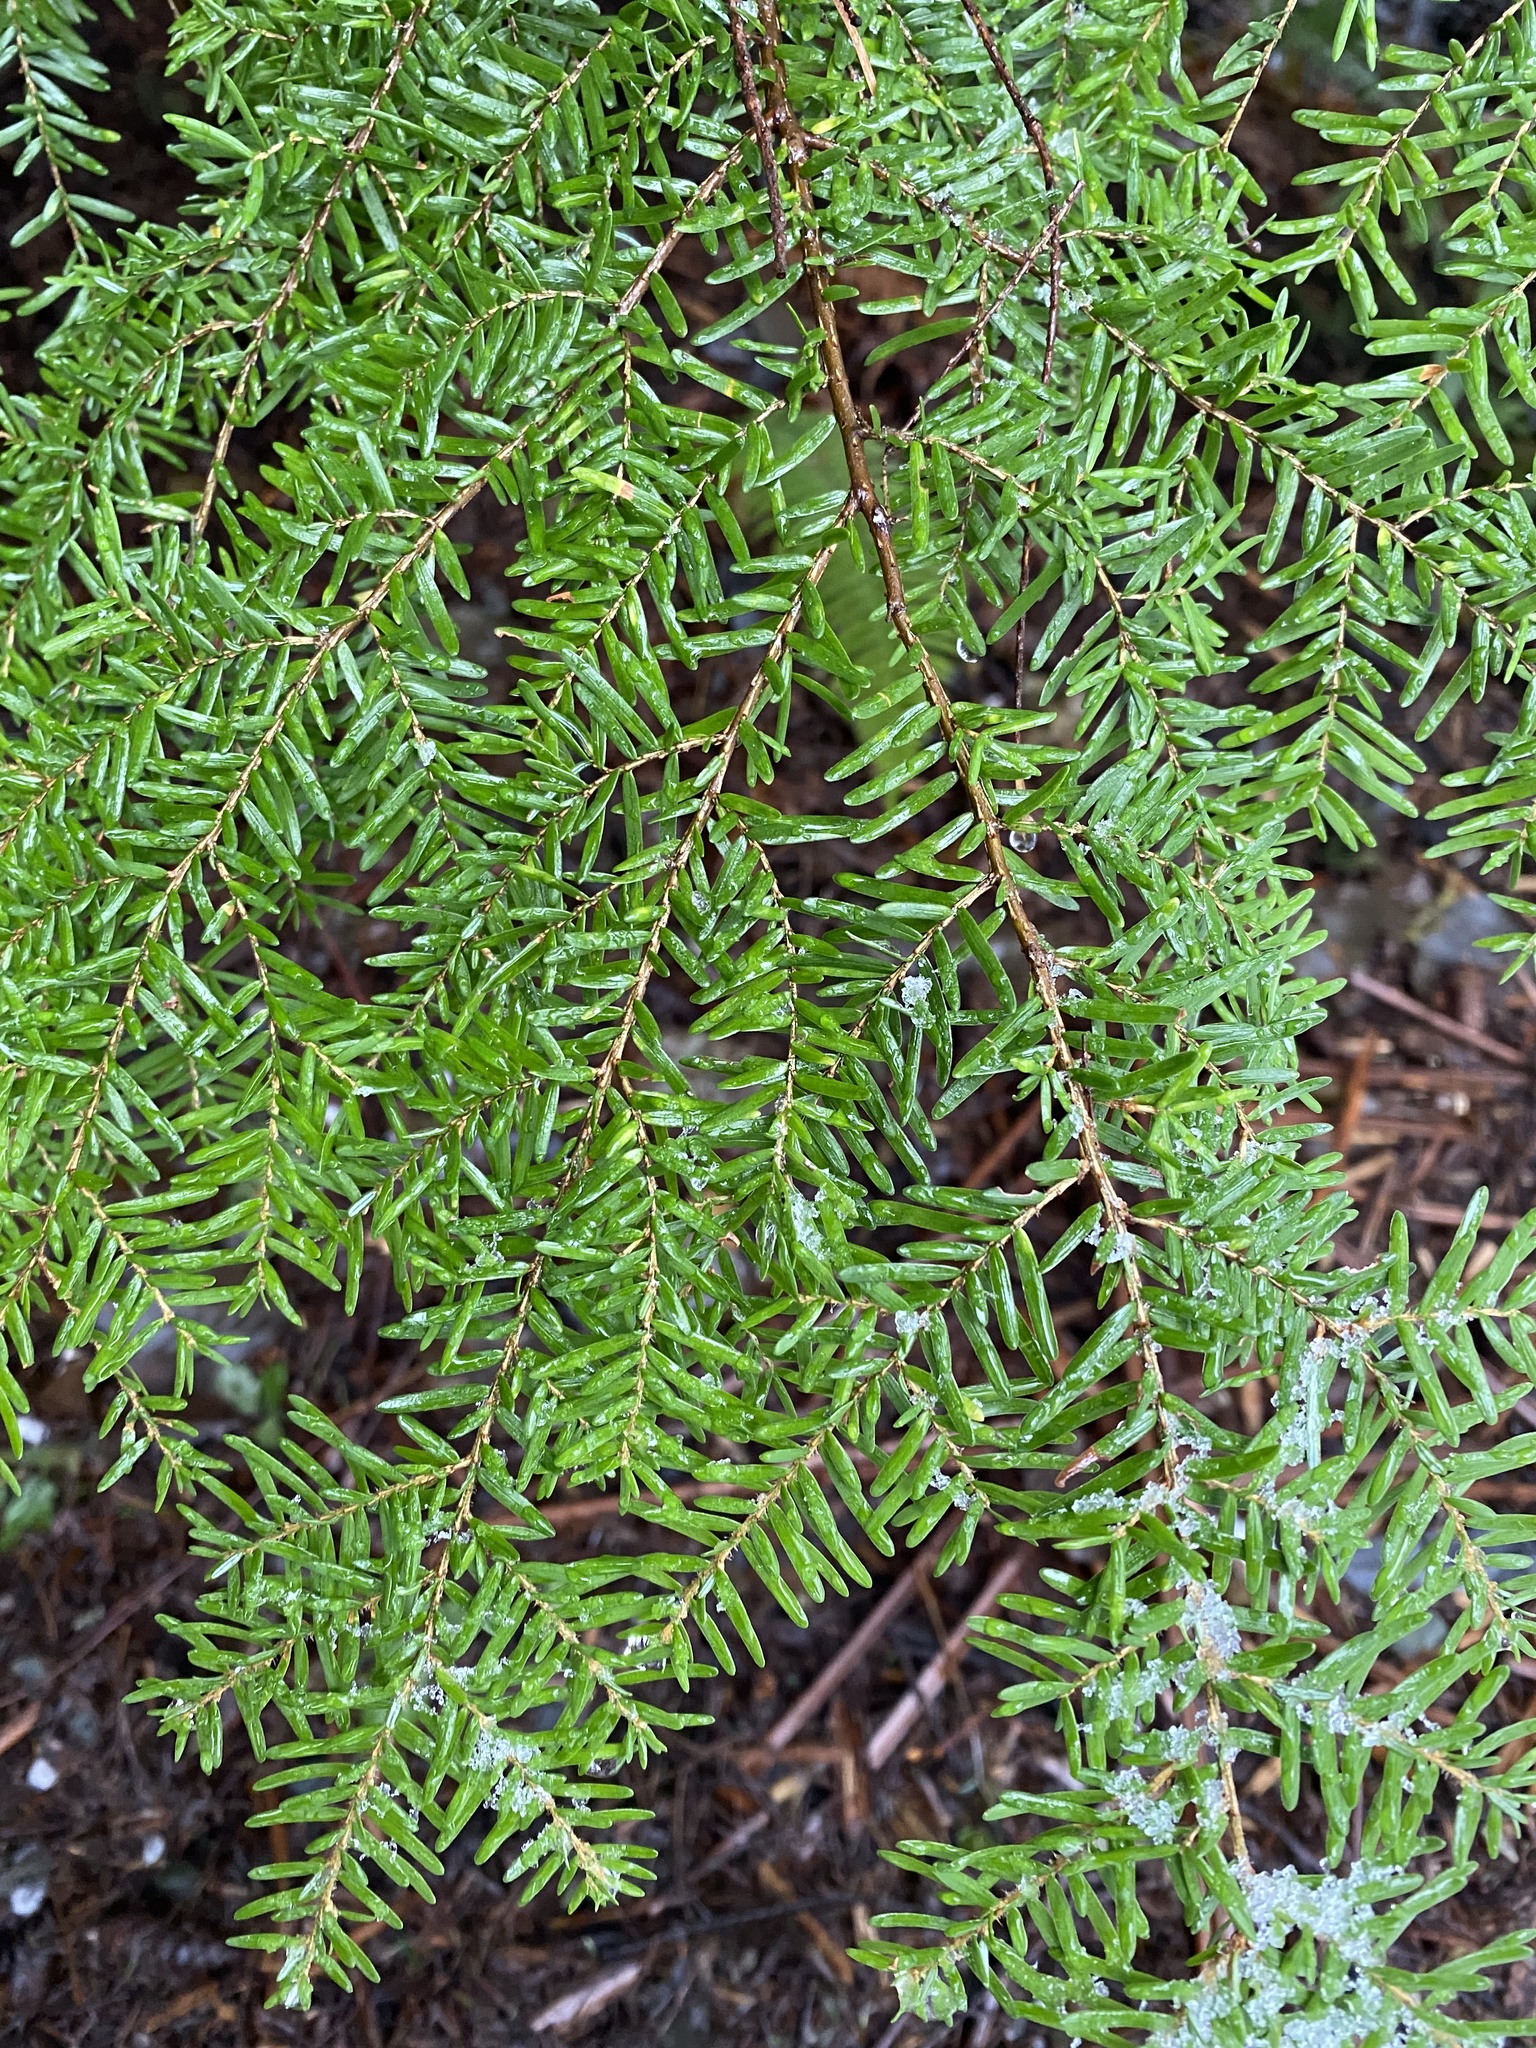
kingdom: Plantae
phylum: Tracheophyta
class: Pinopsida
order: Pinales
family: Pinaceae
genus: Tsuga
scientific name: Tsuga heterophylla
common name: Western hemlock
